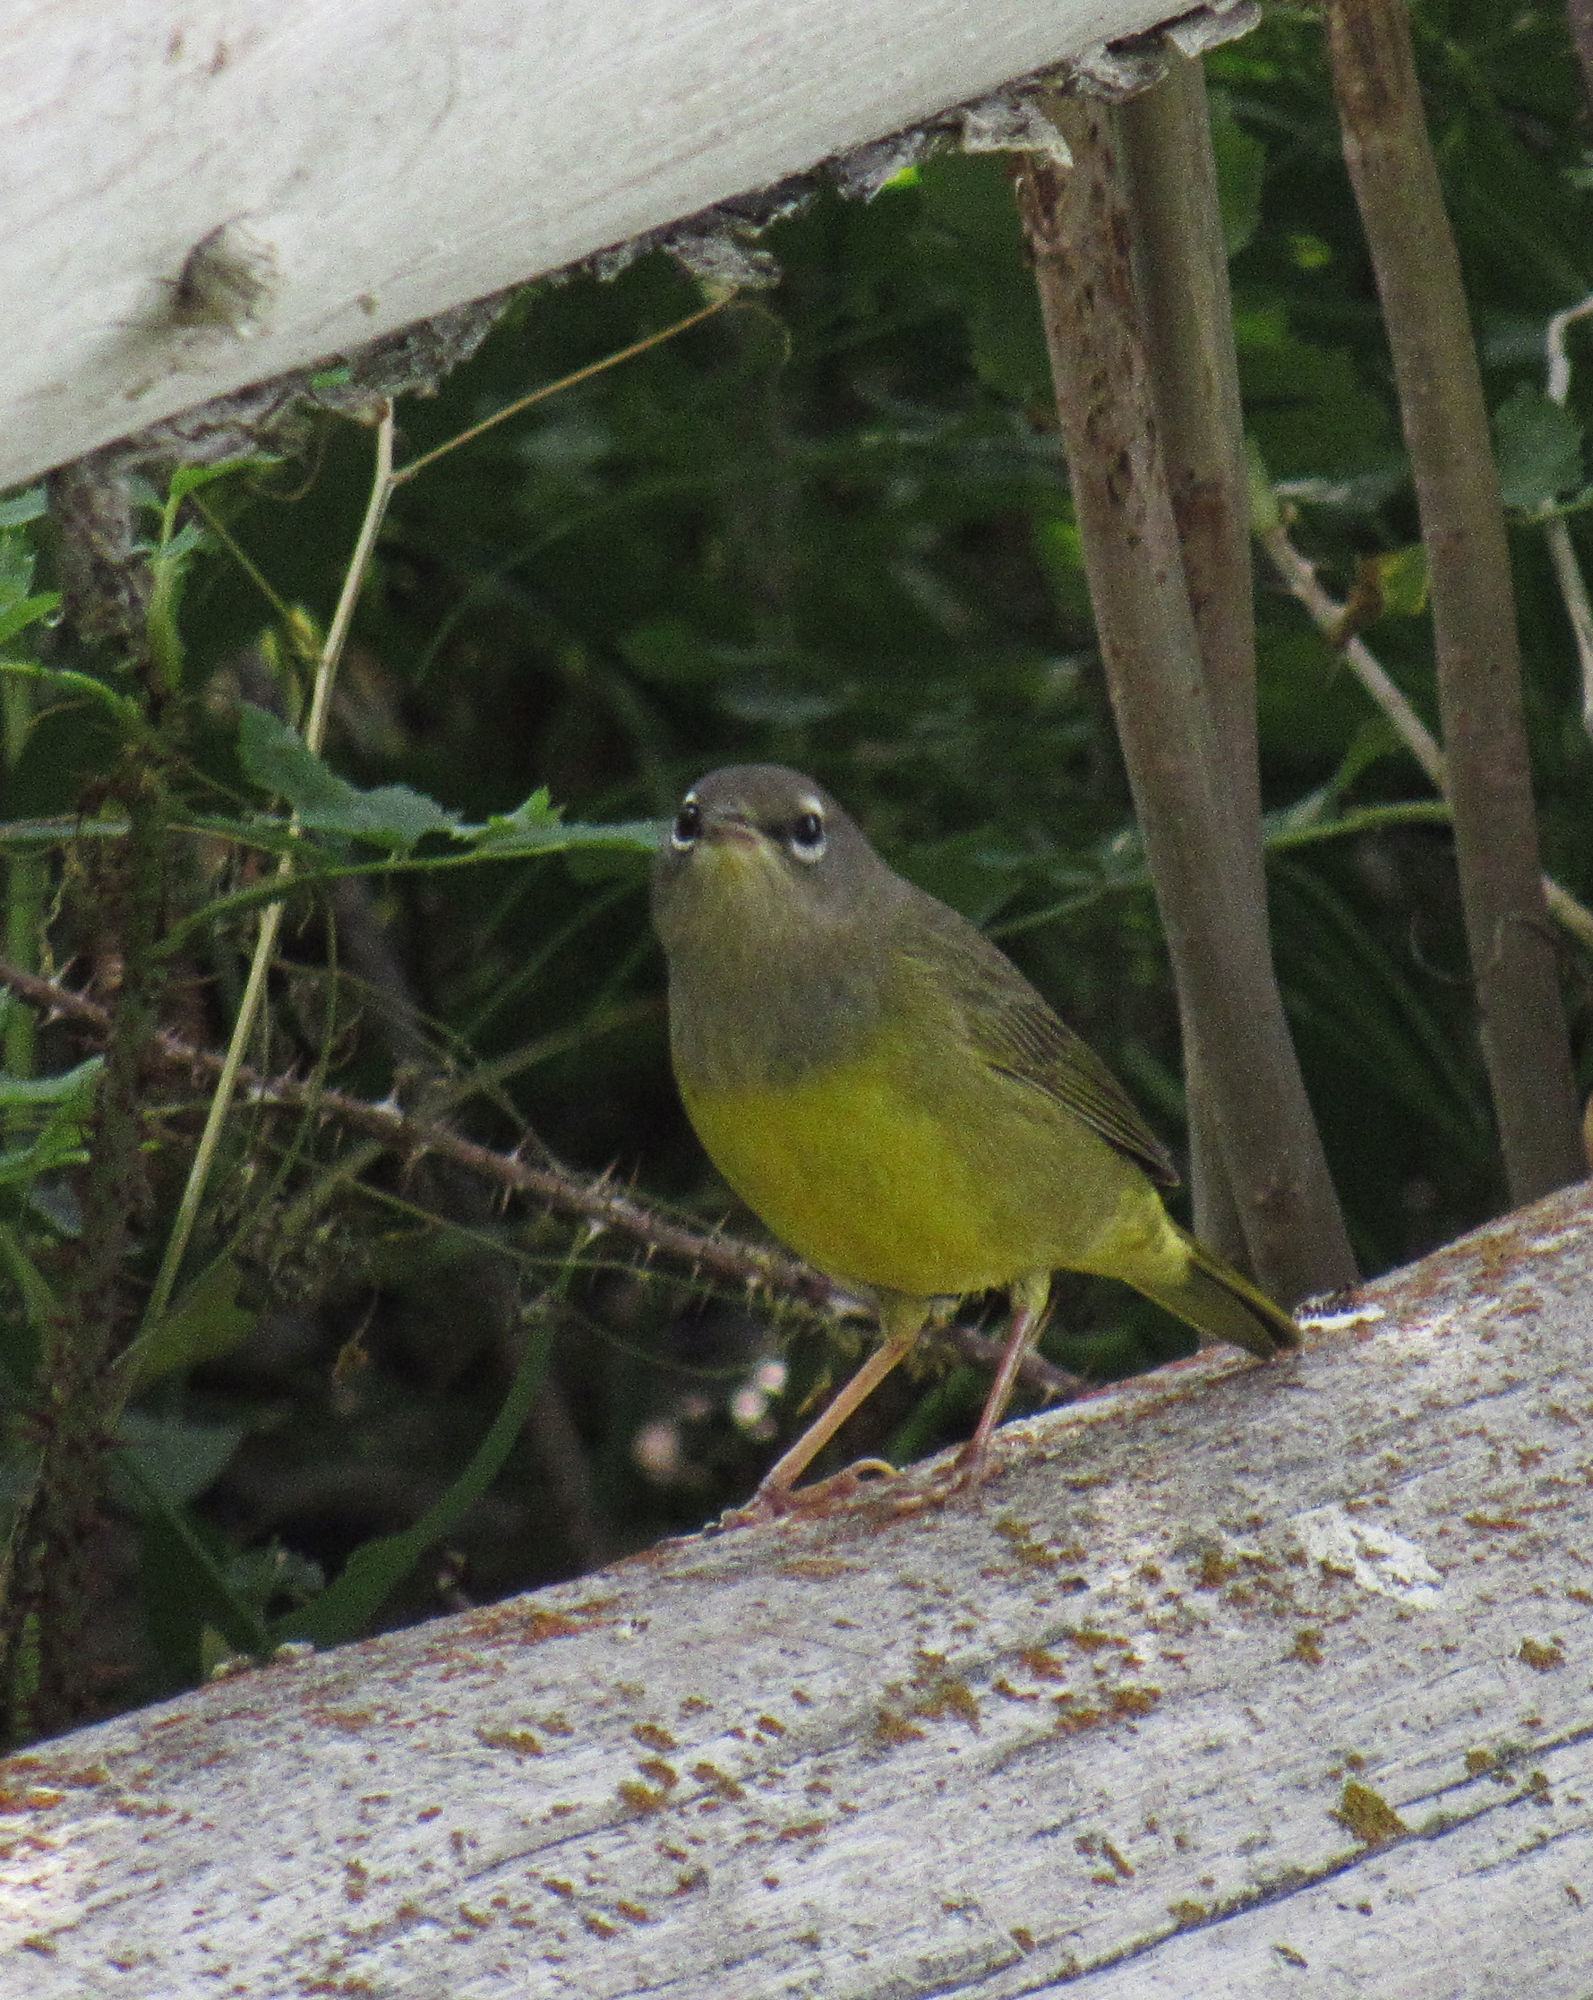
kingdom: Animalia
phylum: Chordata
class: Aves
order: Passeriformes
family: Parulidae
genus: Geothlypis
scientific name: Geothlypis tolmiei
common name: Macgillivray's warbler
